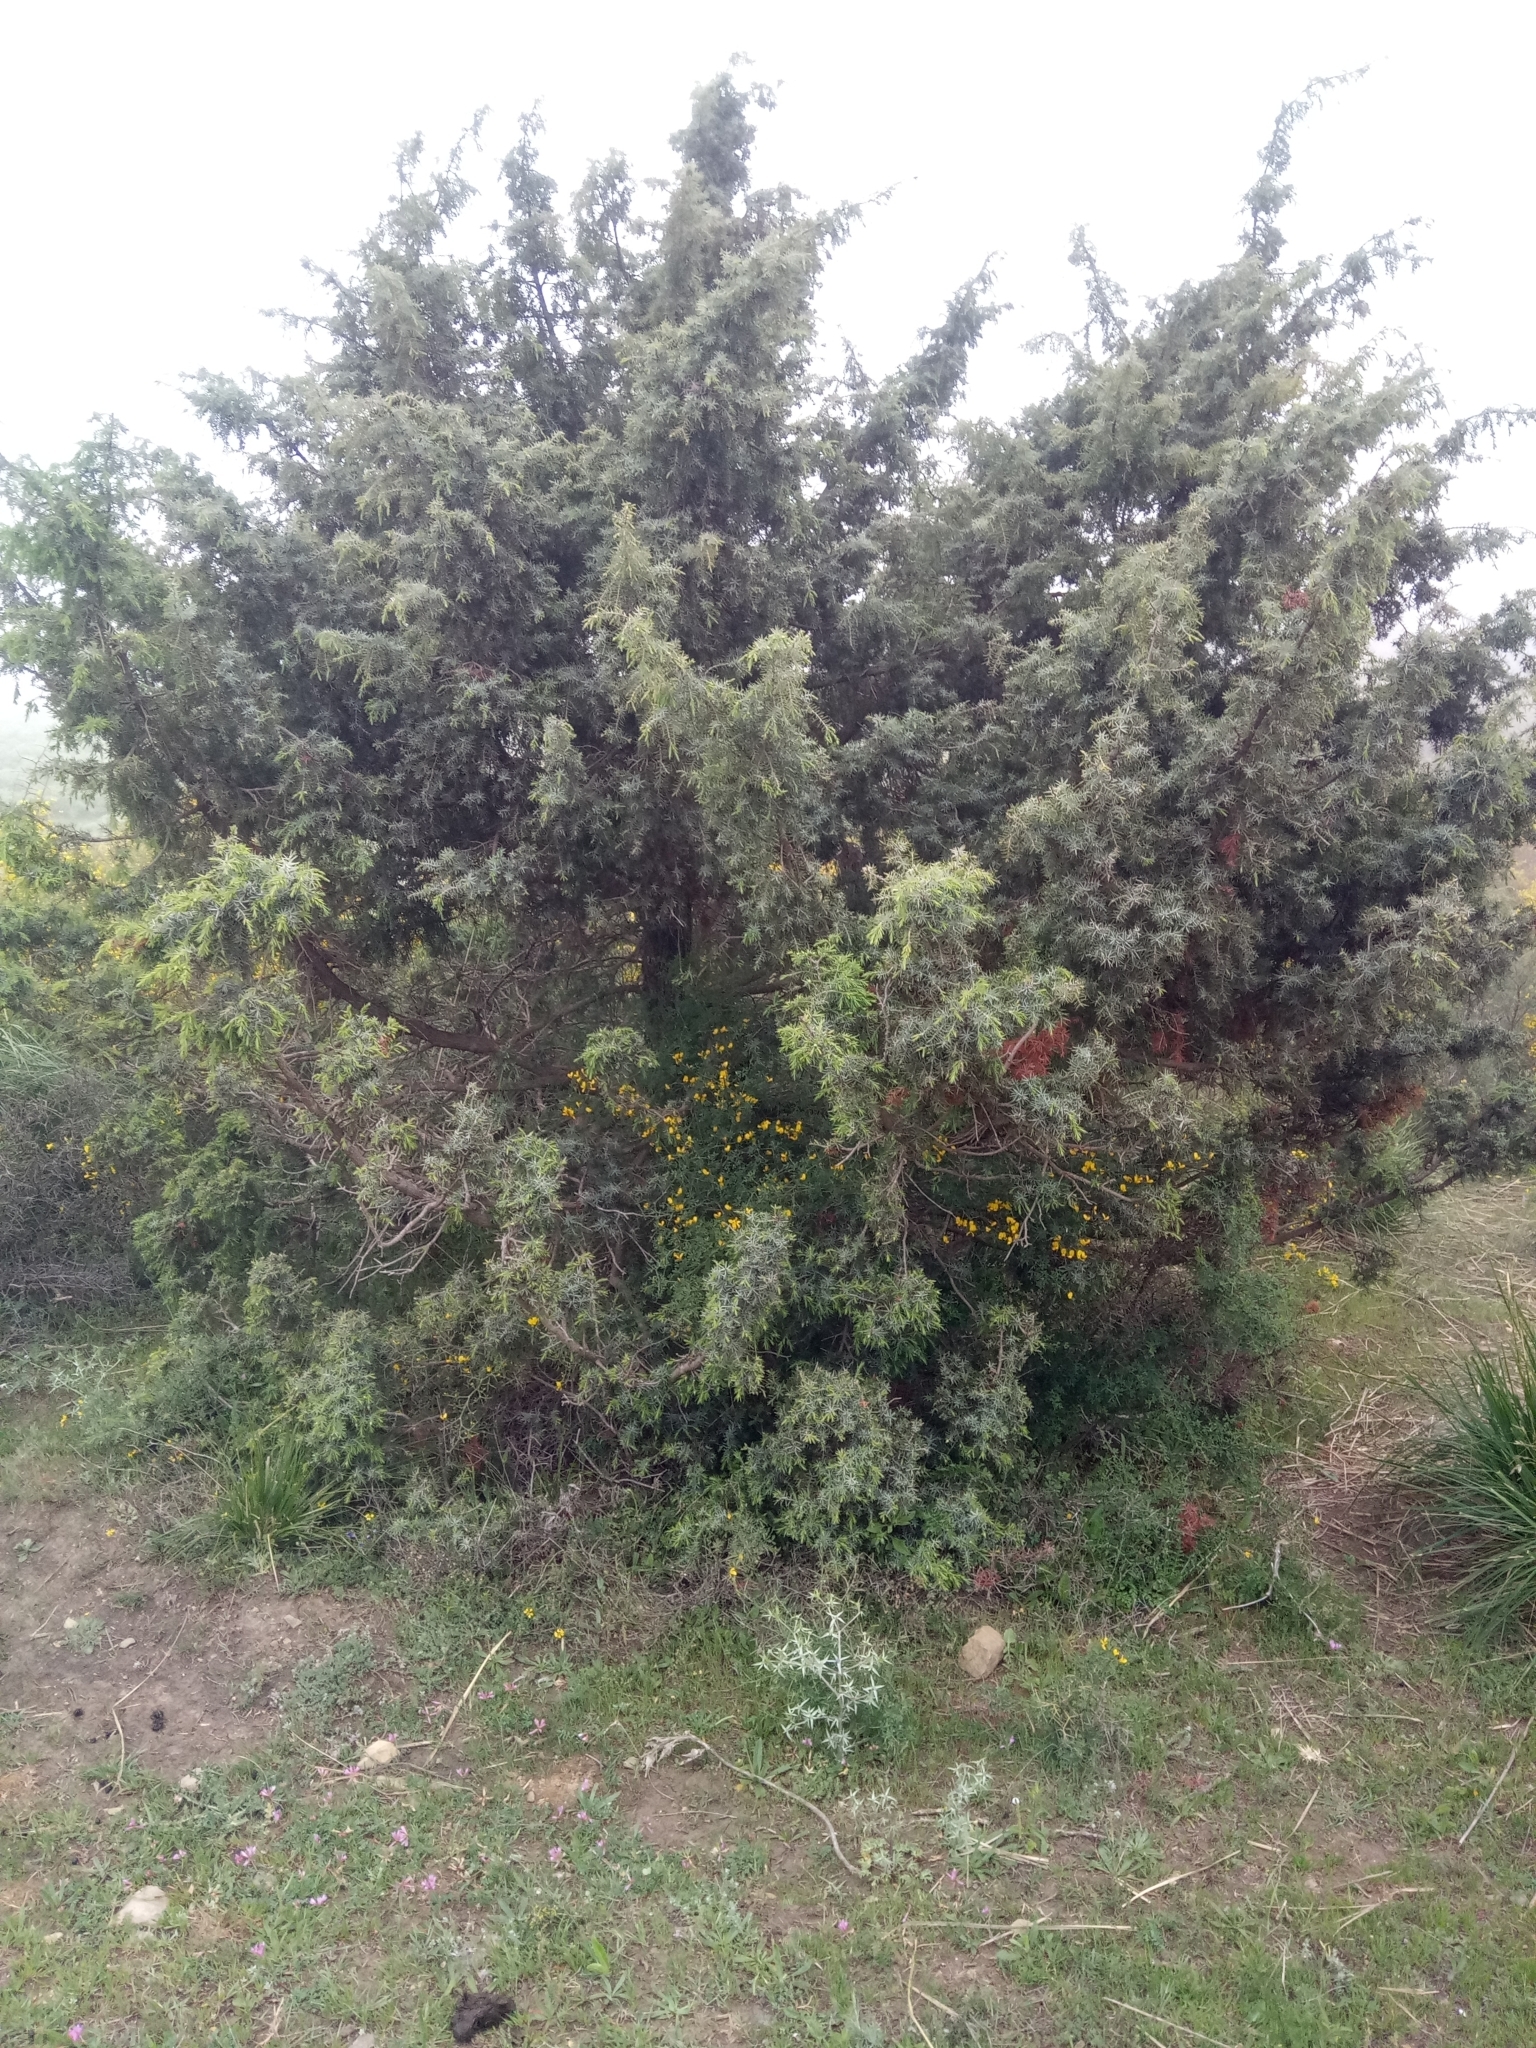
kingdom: Plantae
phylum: Tracheophyta
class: Pinopsida
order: Pinales
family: Cupressaceae
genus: Juniperus
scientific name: Juniperus oxycedrus
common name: Prickly juniper
